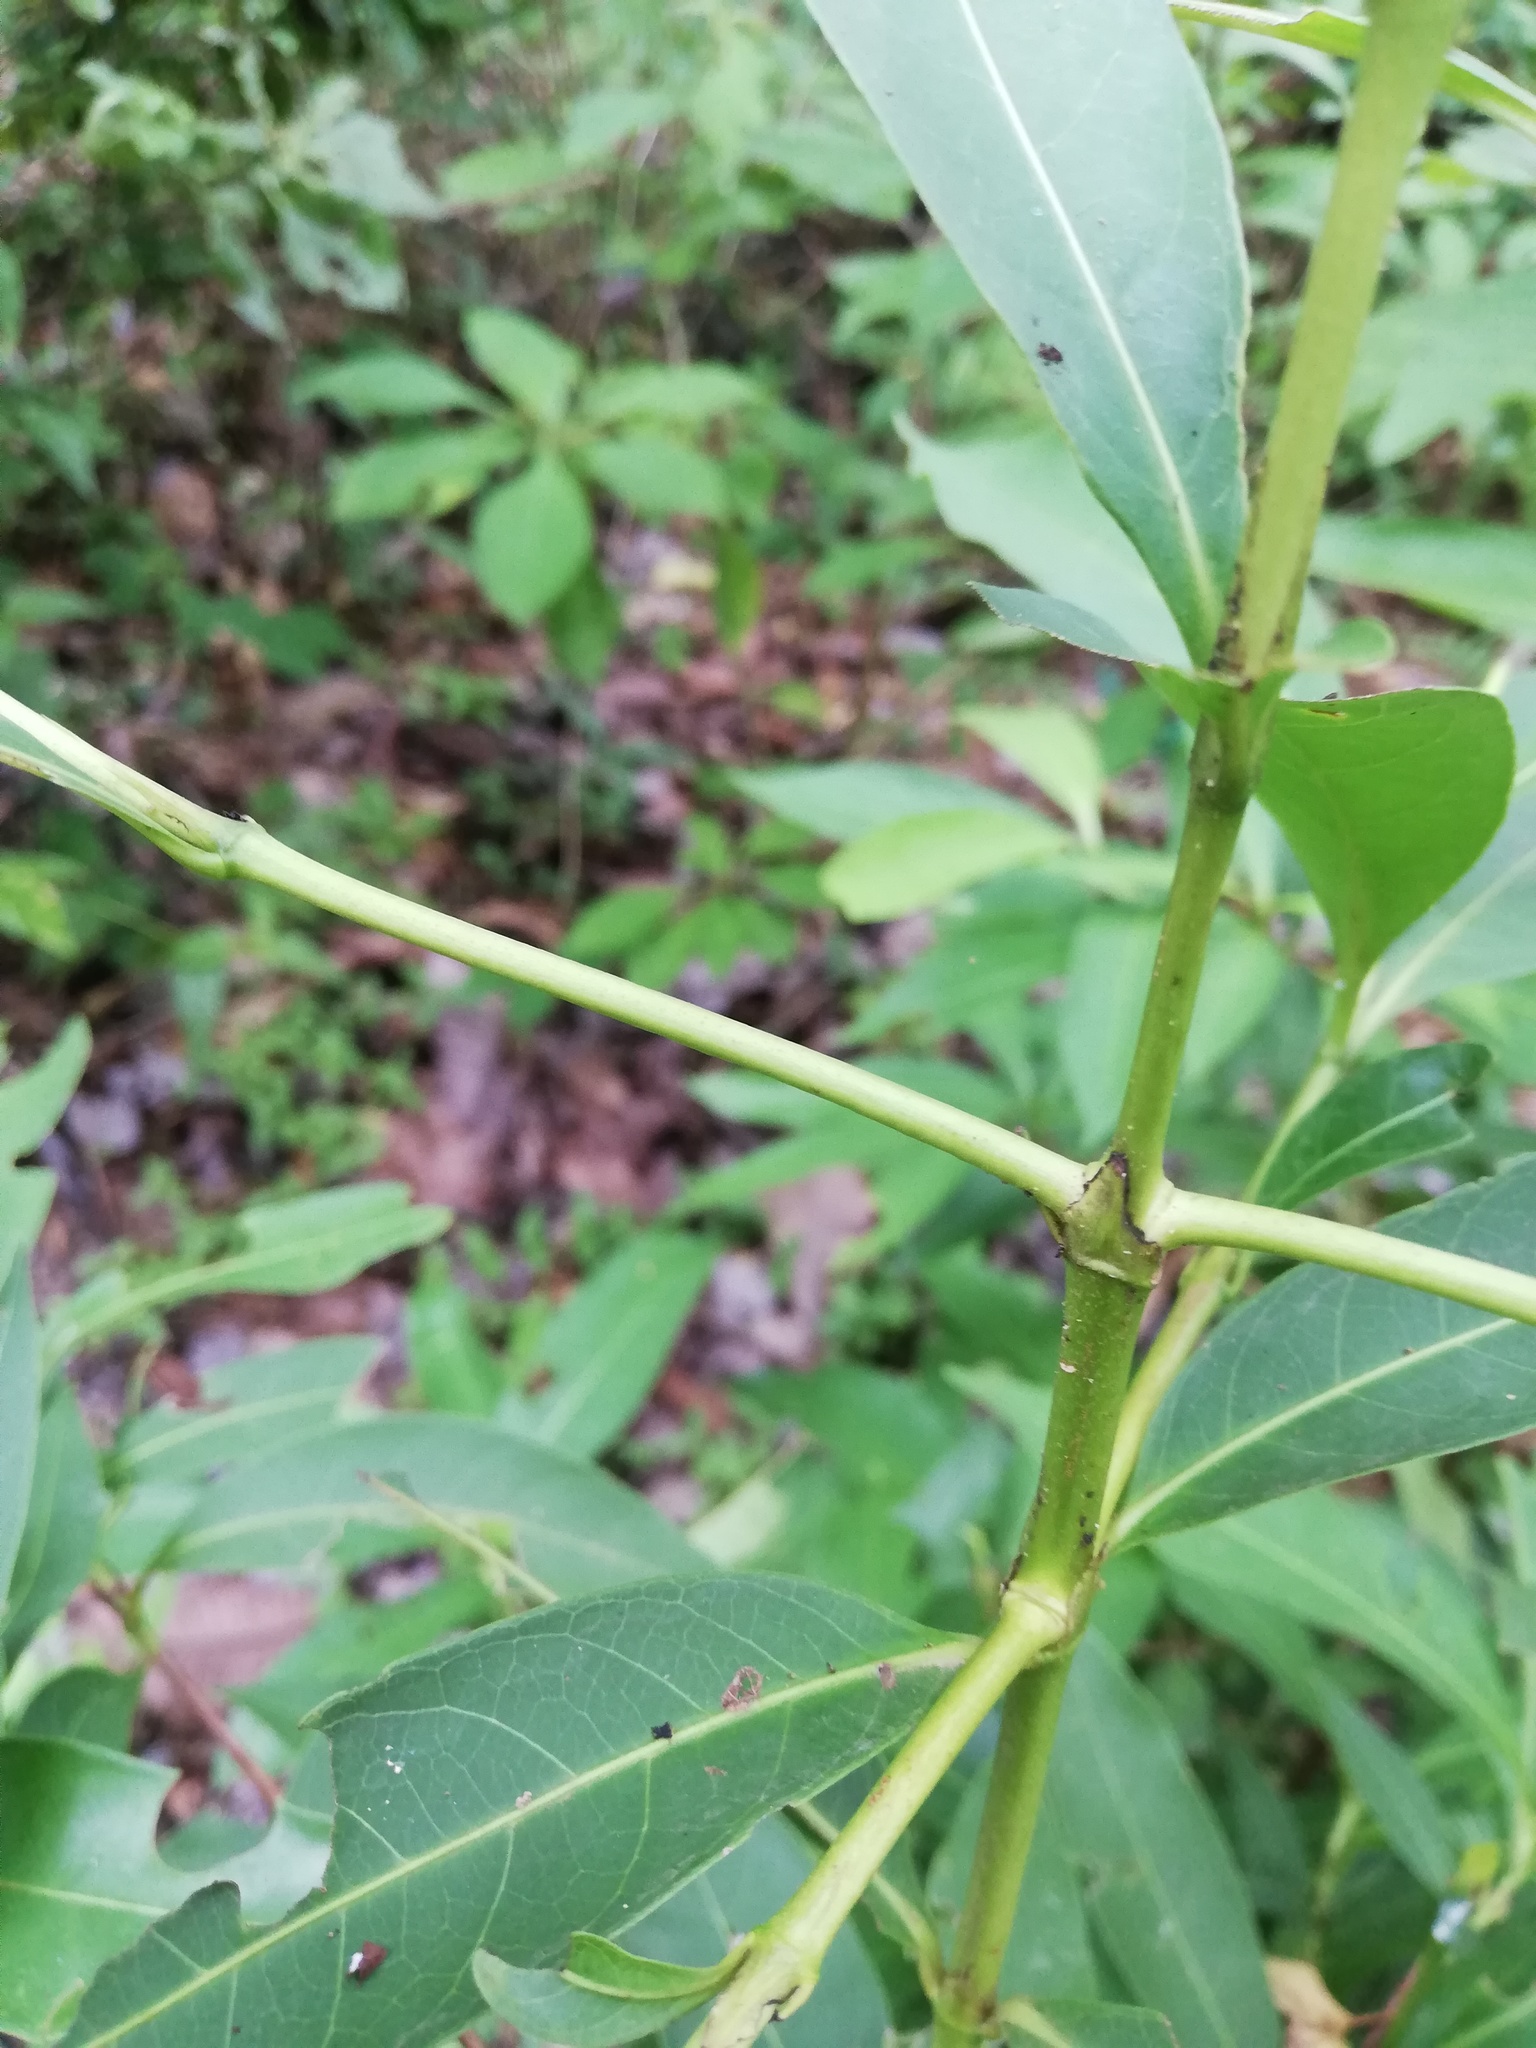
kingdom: Plantae
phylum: Tracheophyta
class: Magnoliopsida
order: Gentianales
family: Rubiaceae
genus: Alibertia
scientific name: Alibertia edulis
